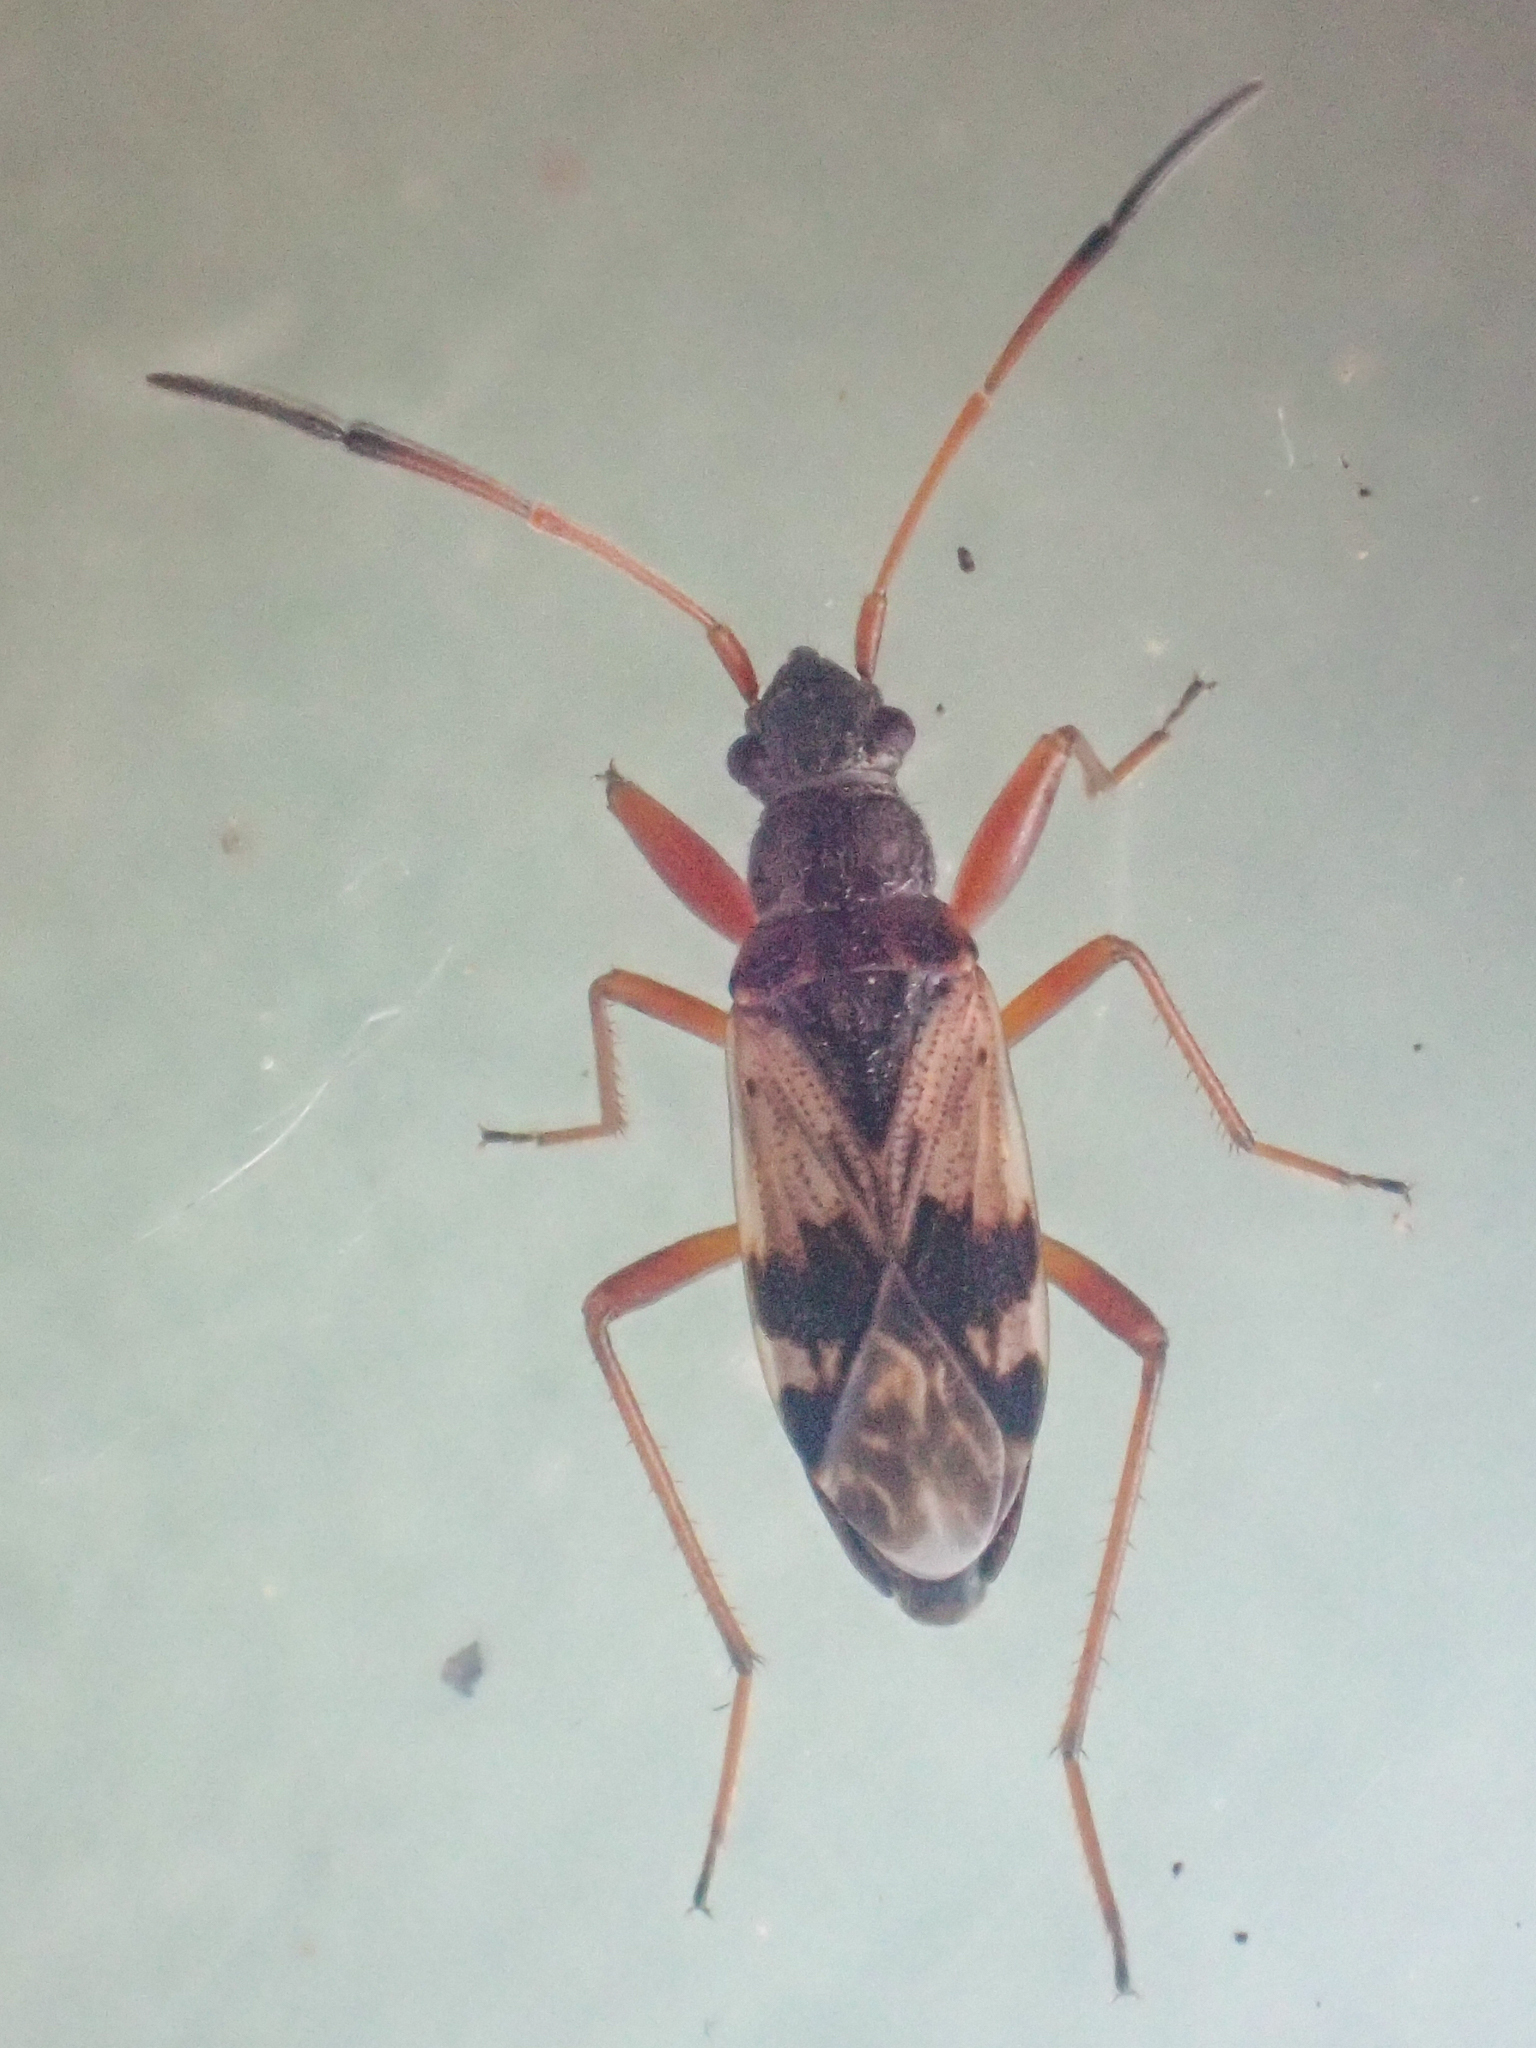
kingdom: Animalia
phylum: Arthropoda
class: Insecta
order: Hemiptera
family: Rhyparochromidae
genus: Ligyrocoris
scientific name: Ligyrocoris sylvestris
